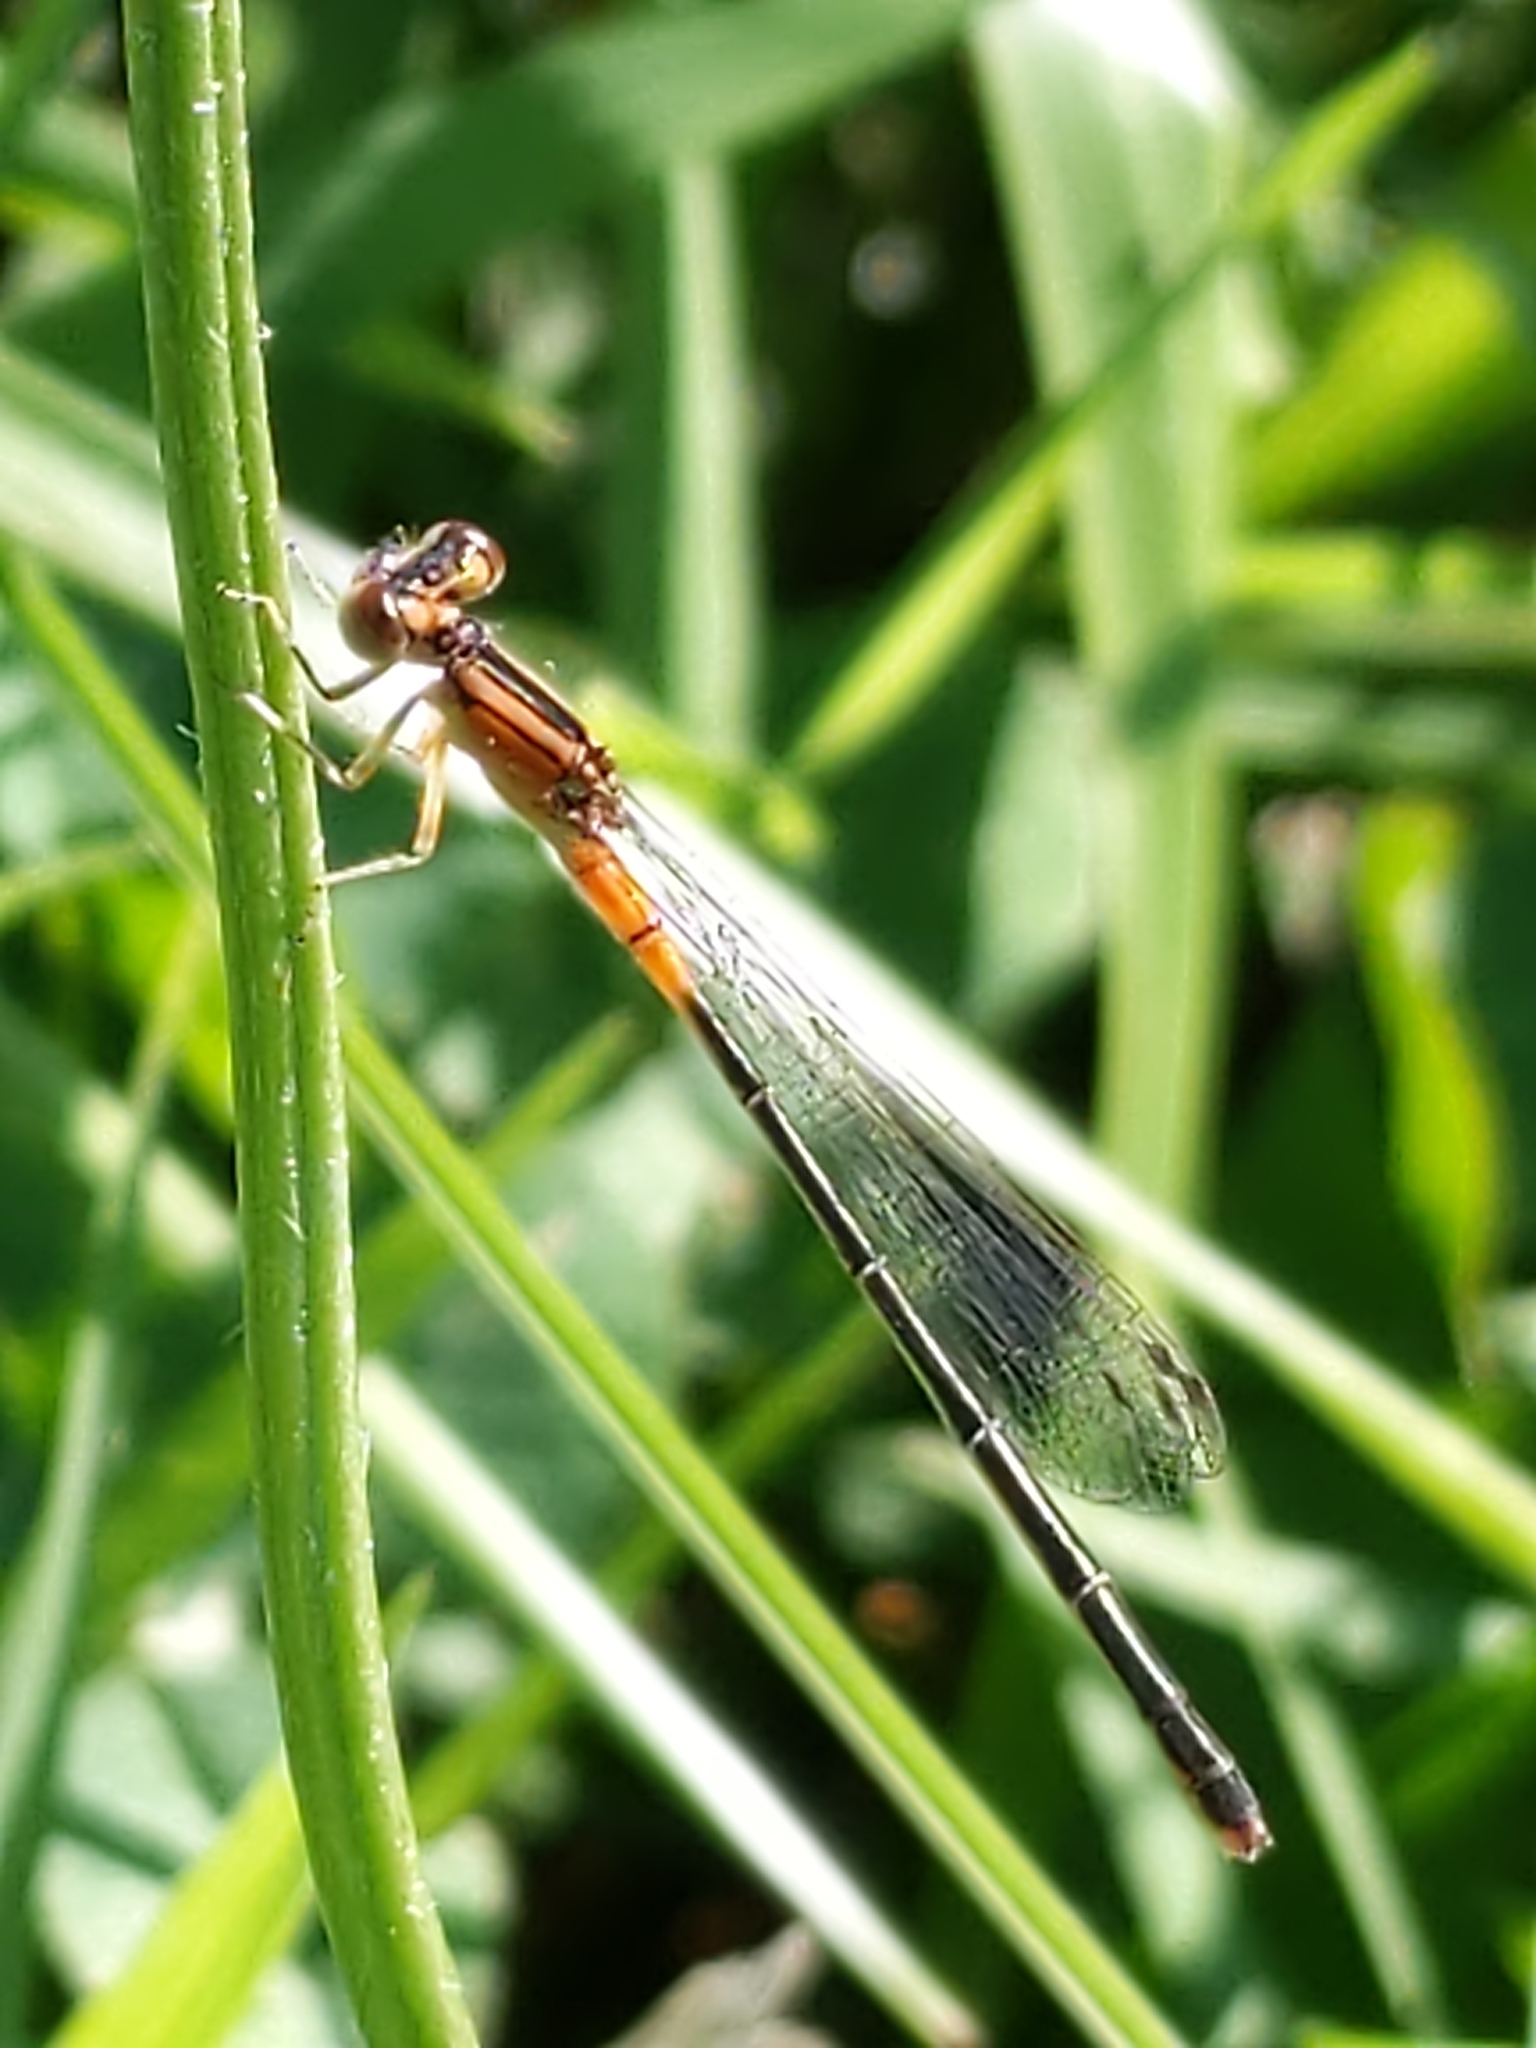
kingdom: Animalia
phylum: Arthropoda
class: Insecta
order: Odonata
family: Coenagrionidae
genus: Ischnura
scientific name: Ischnura verticalis
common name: Eastern forktail
